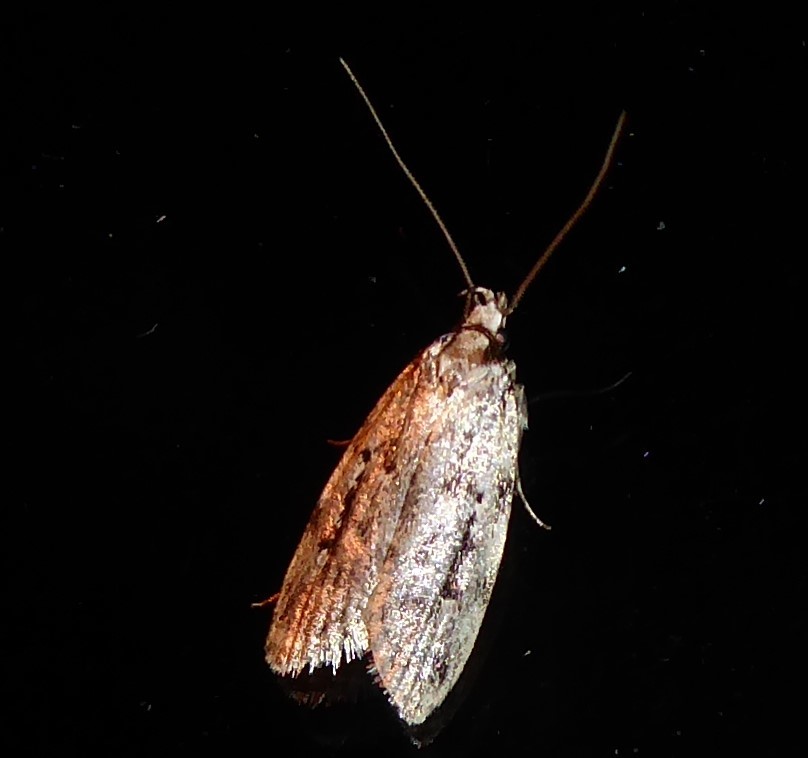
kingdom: Animalia
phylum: Arthropoda
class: Insecta
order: Lepidoptera
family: Oecophoridae
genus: Barea
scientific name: Barea exarcha
